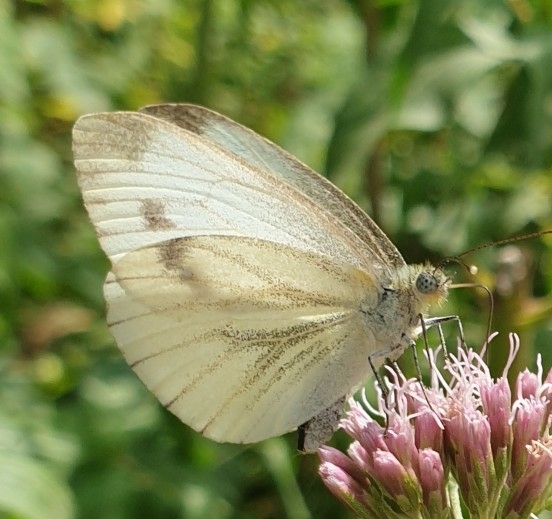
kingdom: Animalia
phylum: Arthropoda
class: Insecta
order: Lepidoptera
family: Pieridae
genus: Pieris
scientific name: Pieris napi
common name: Green-veined white
